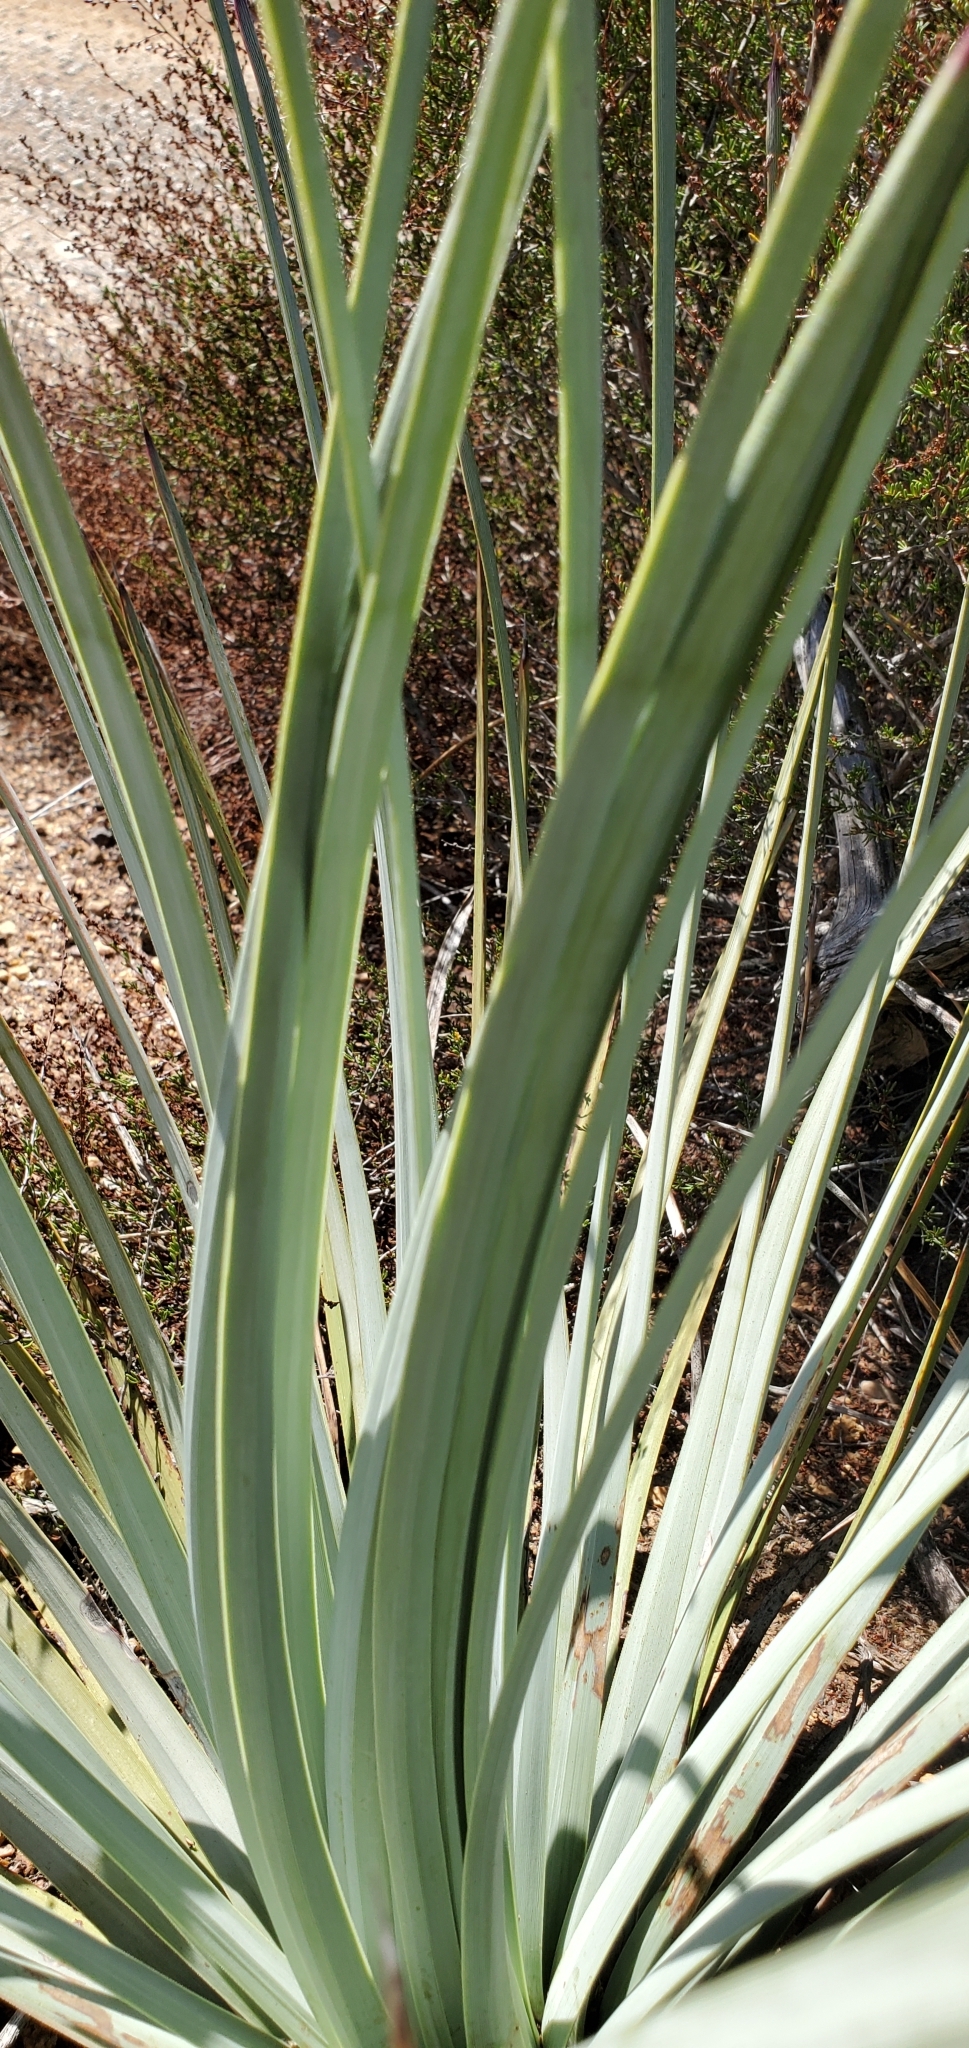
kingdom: Plantae
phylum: Tracheophyta
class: Liliopsida
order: Asparagales
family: Asparagaceae
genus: Hesperoyucca
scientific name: Hesperoyucca whipplei
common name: Our lord's-candle
